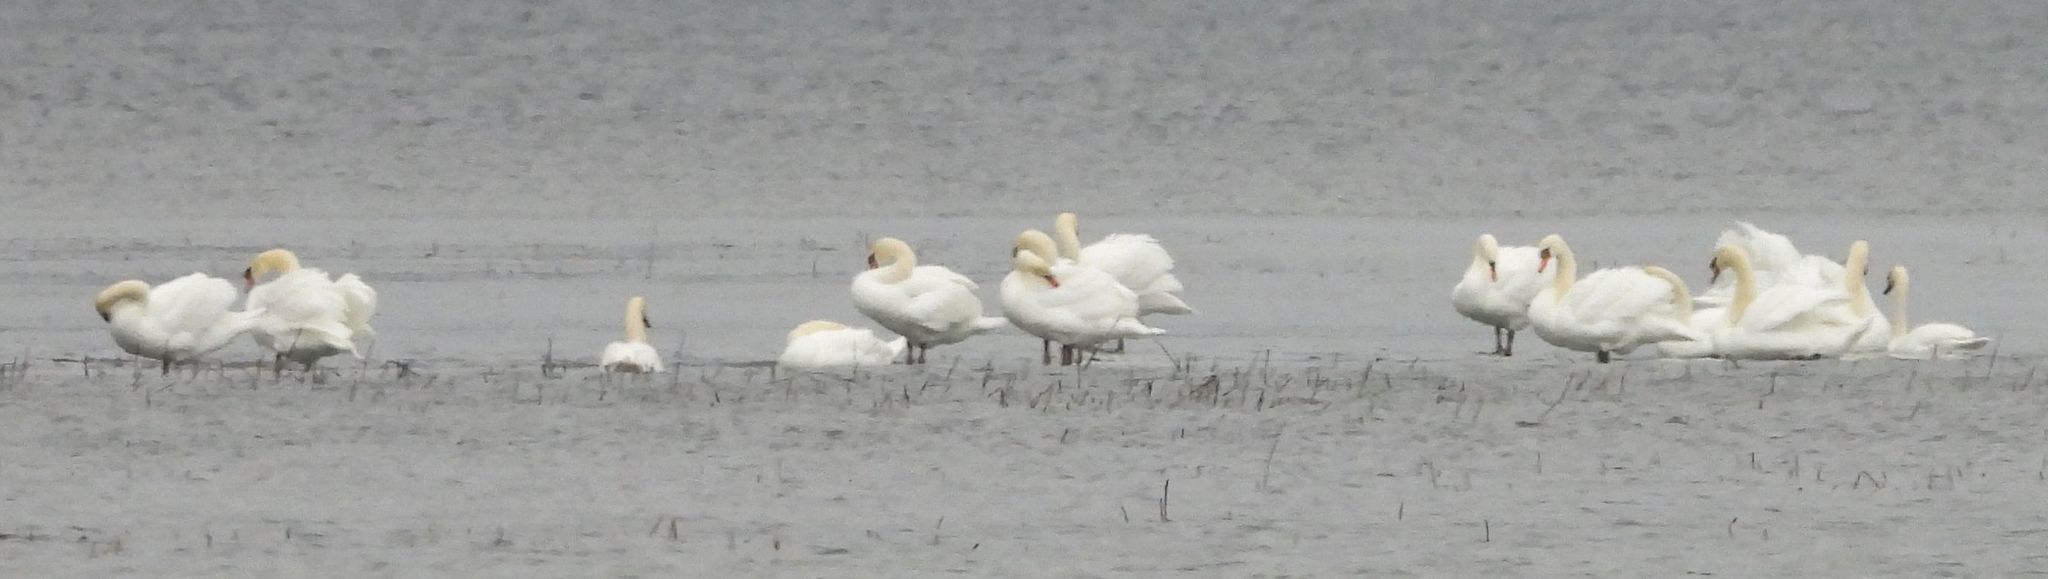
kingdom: Animalia
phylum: Chordata
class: Aves
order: Anseriformes
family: Anatidae
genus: Cygnus
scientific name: Cygnus olor
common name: Mute swan
